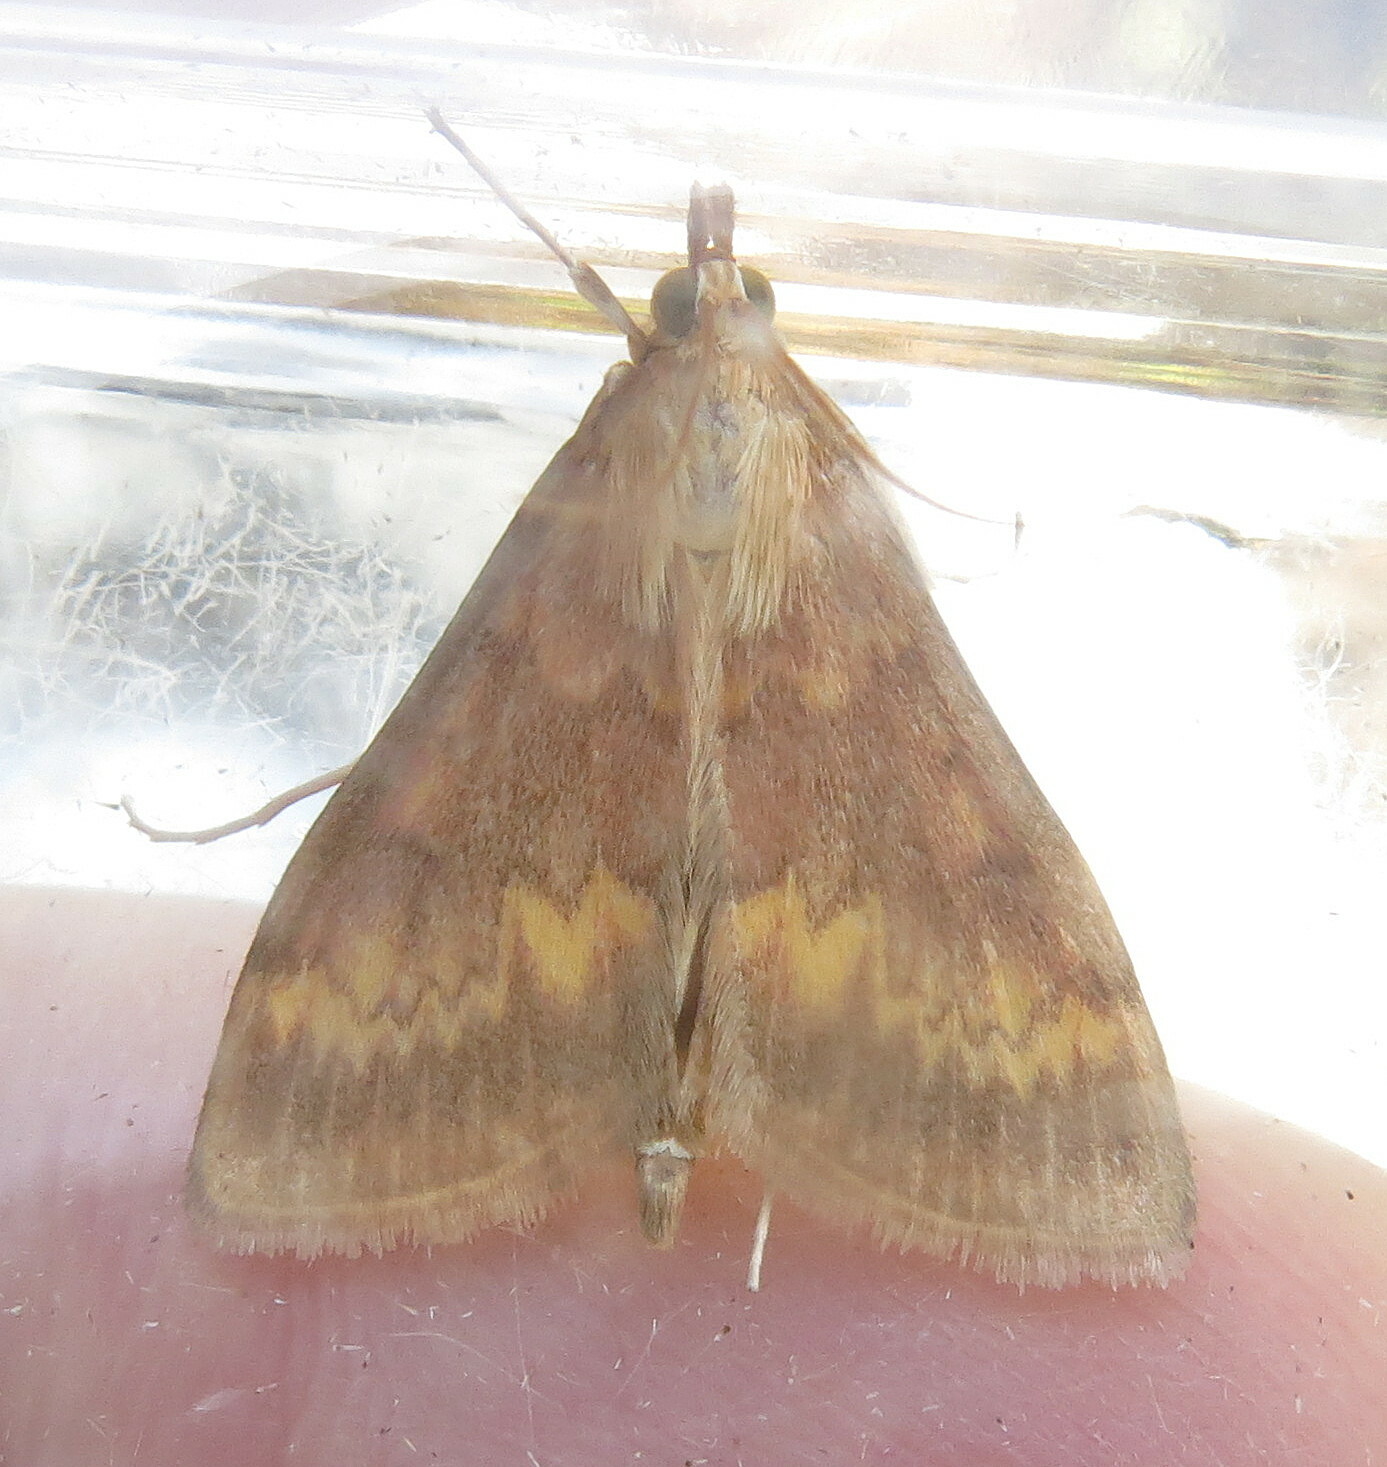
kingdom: Animalia
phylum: Arthropoda
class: Insecta
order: Lepidoptera
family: Crambidae
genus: Ostrinia
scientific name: Ostrinia nubilalis
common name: European corn borer
